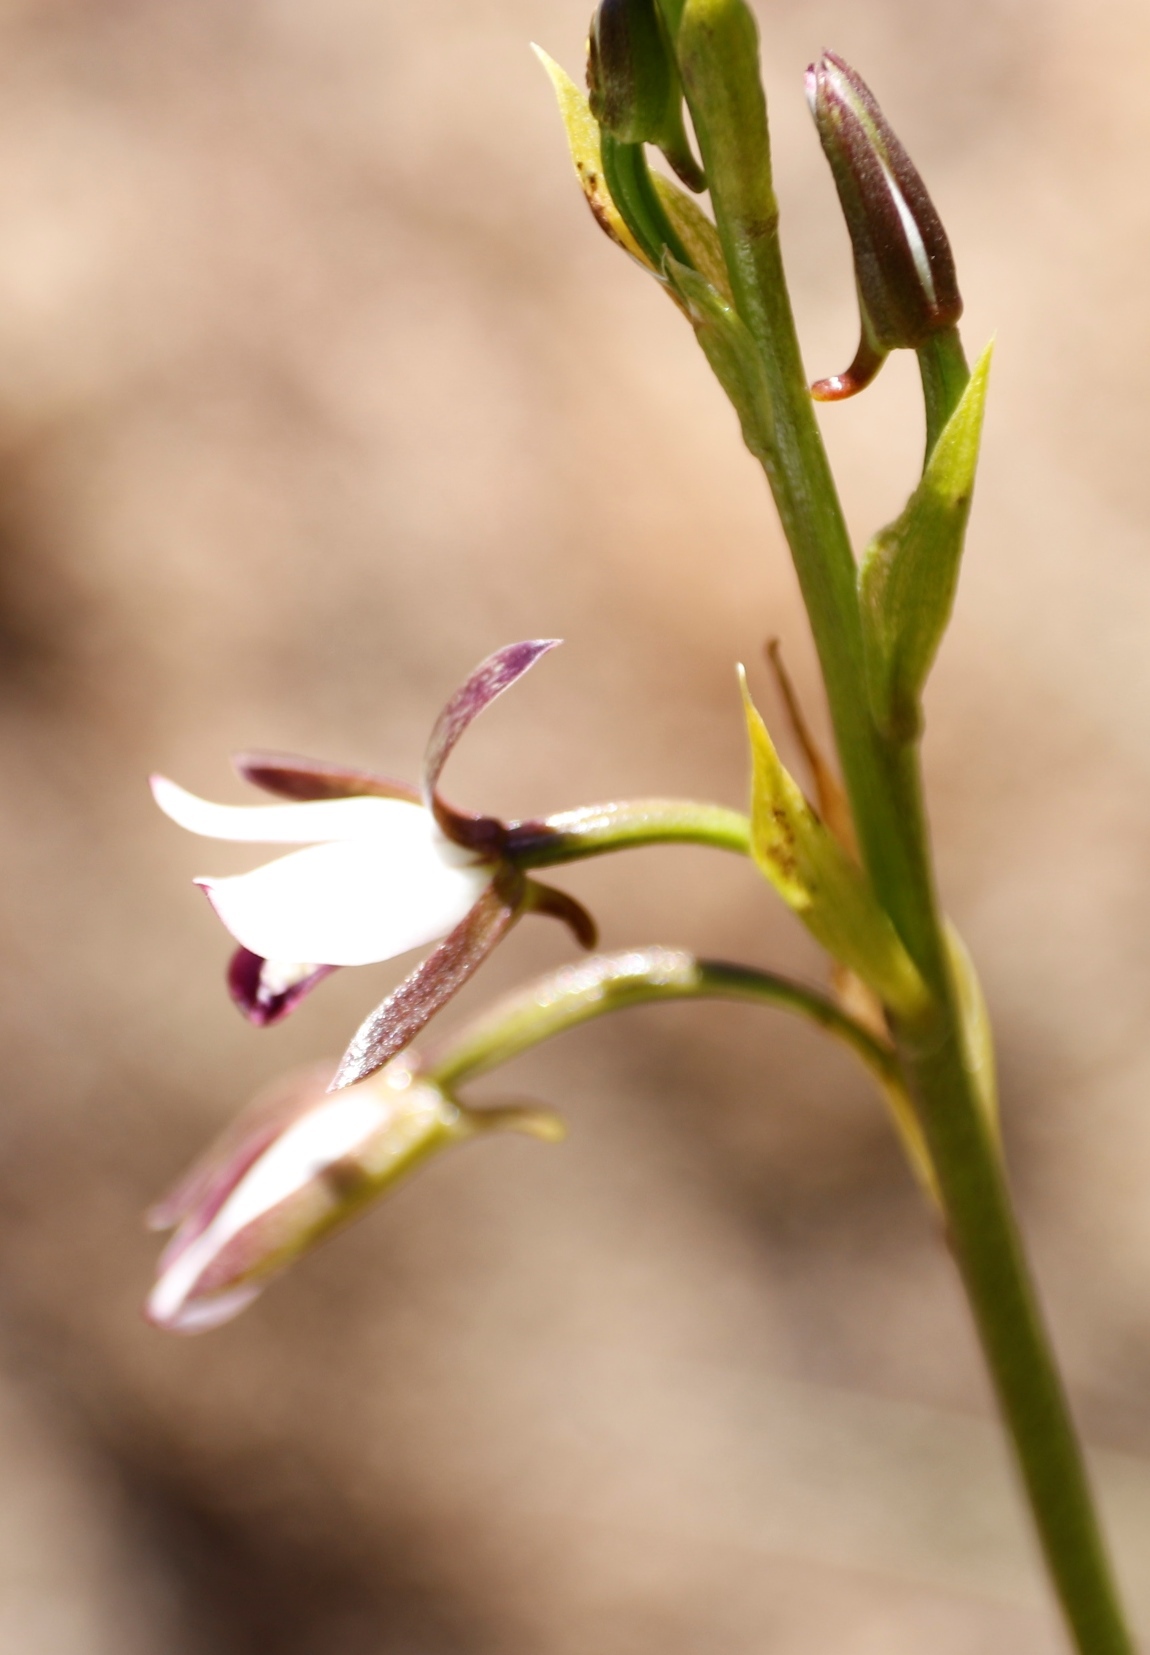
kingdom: Plantae
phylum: Tracheophyta
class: Liliopsida
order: Asparagales
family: Orchidaceae
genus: Eulophia
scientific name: Eulophia hians
